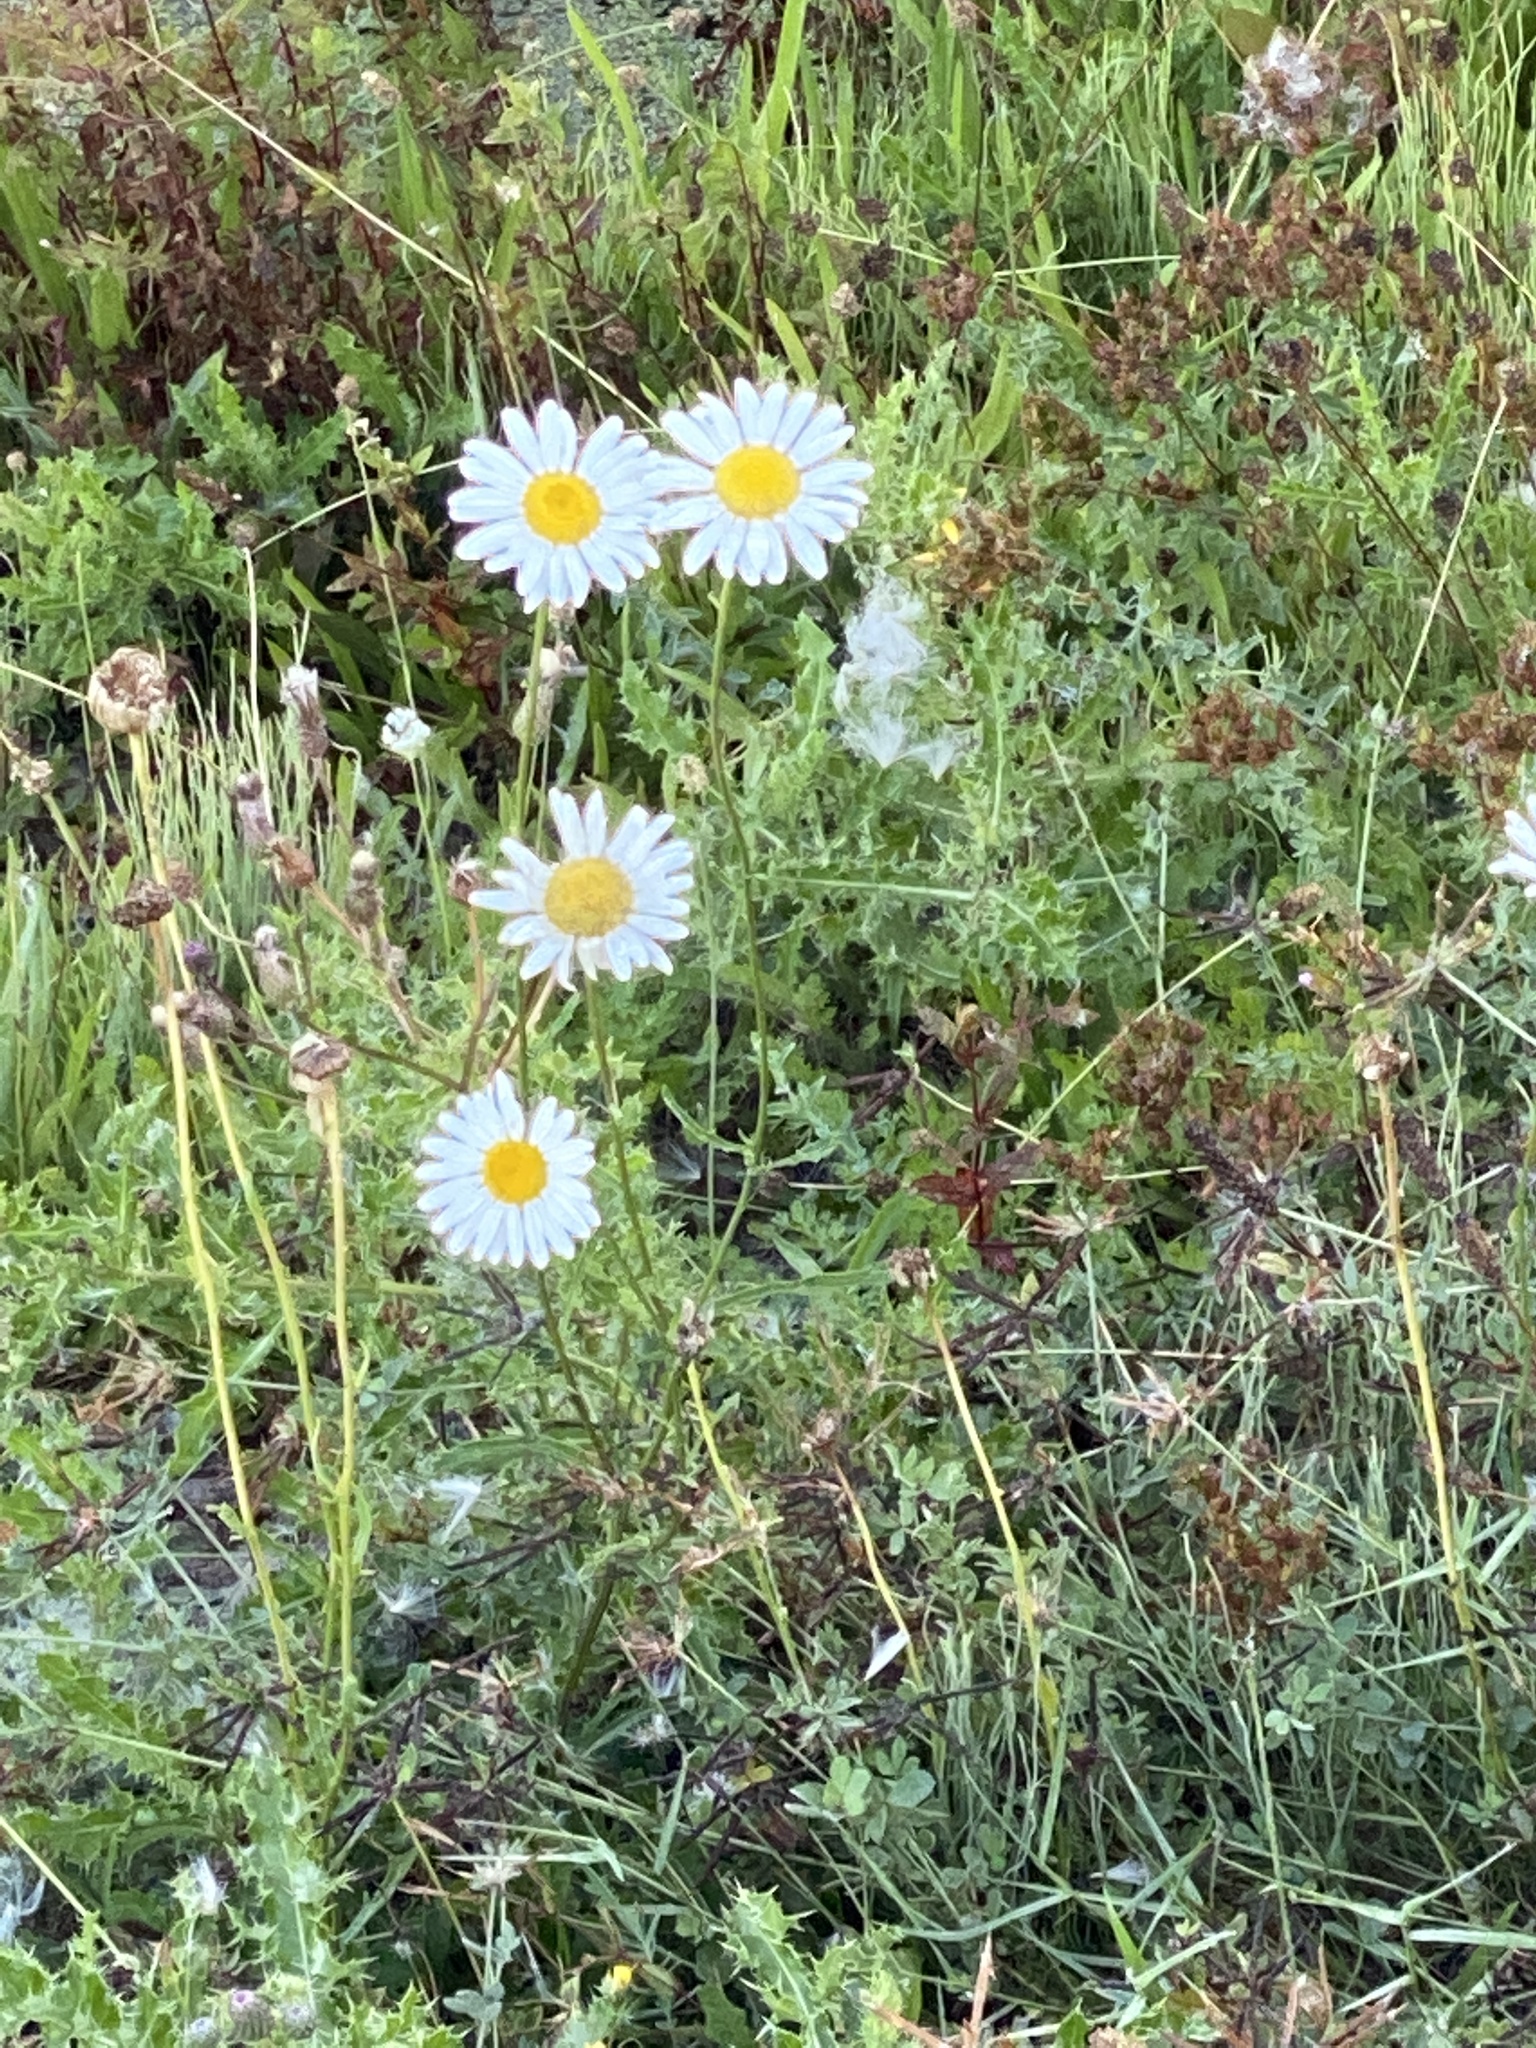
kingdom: Plantae
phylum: Tracheophyta
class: Magnoliopsida
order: Asterales
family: Asteraceae
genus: Leucanthemum
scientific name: Leucanthemum vulgare
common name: Oxeye daisy
